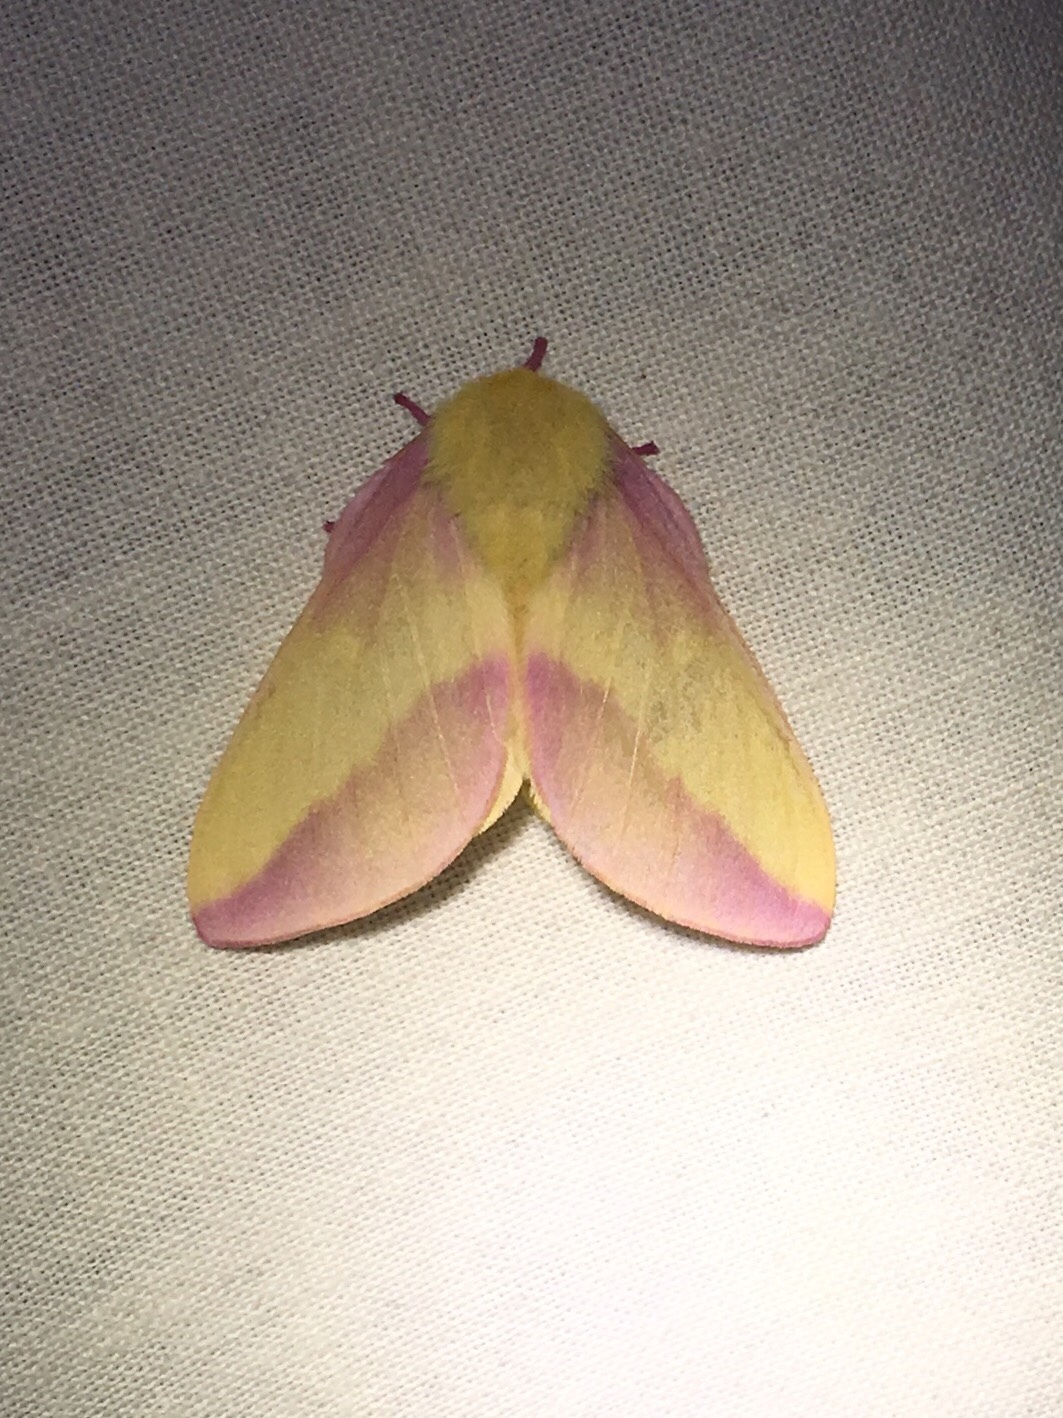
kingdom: Animalia
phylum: Arthropoda
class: Insecta
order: Lepidoptera
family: Saturniidae
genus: Dryocampa
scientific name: Dryocampa rubicunda
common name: Rosy maple moth
